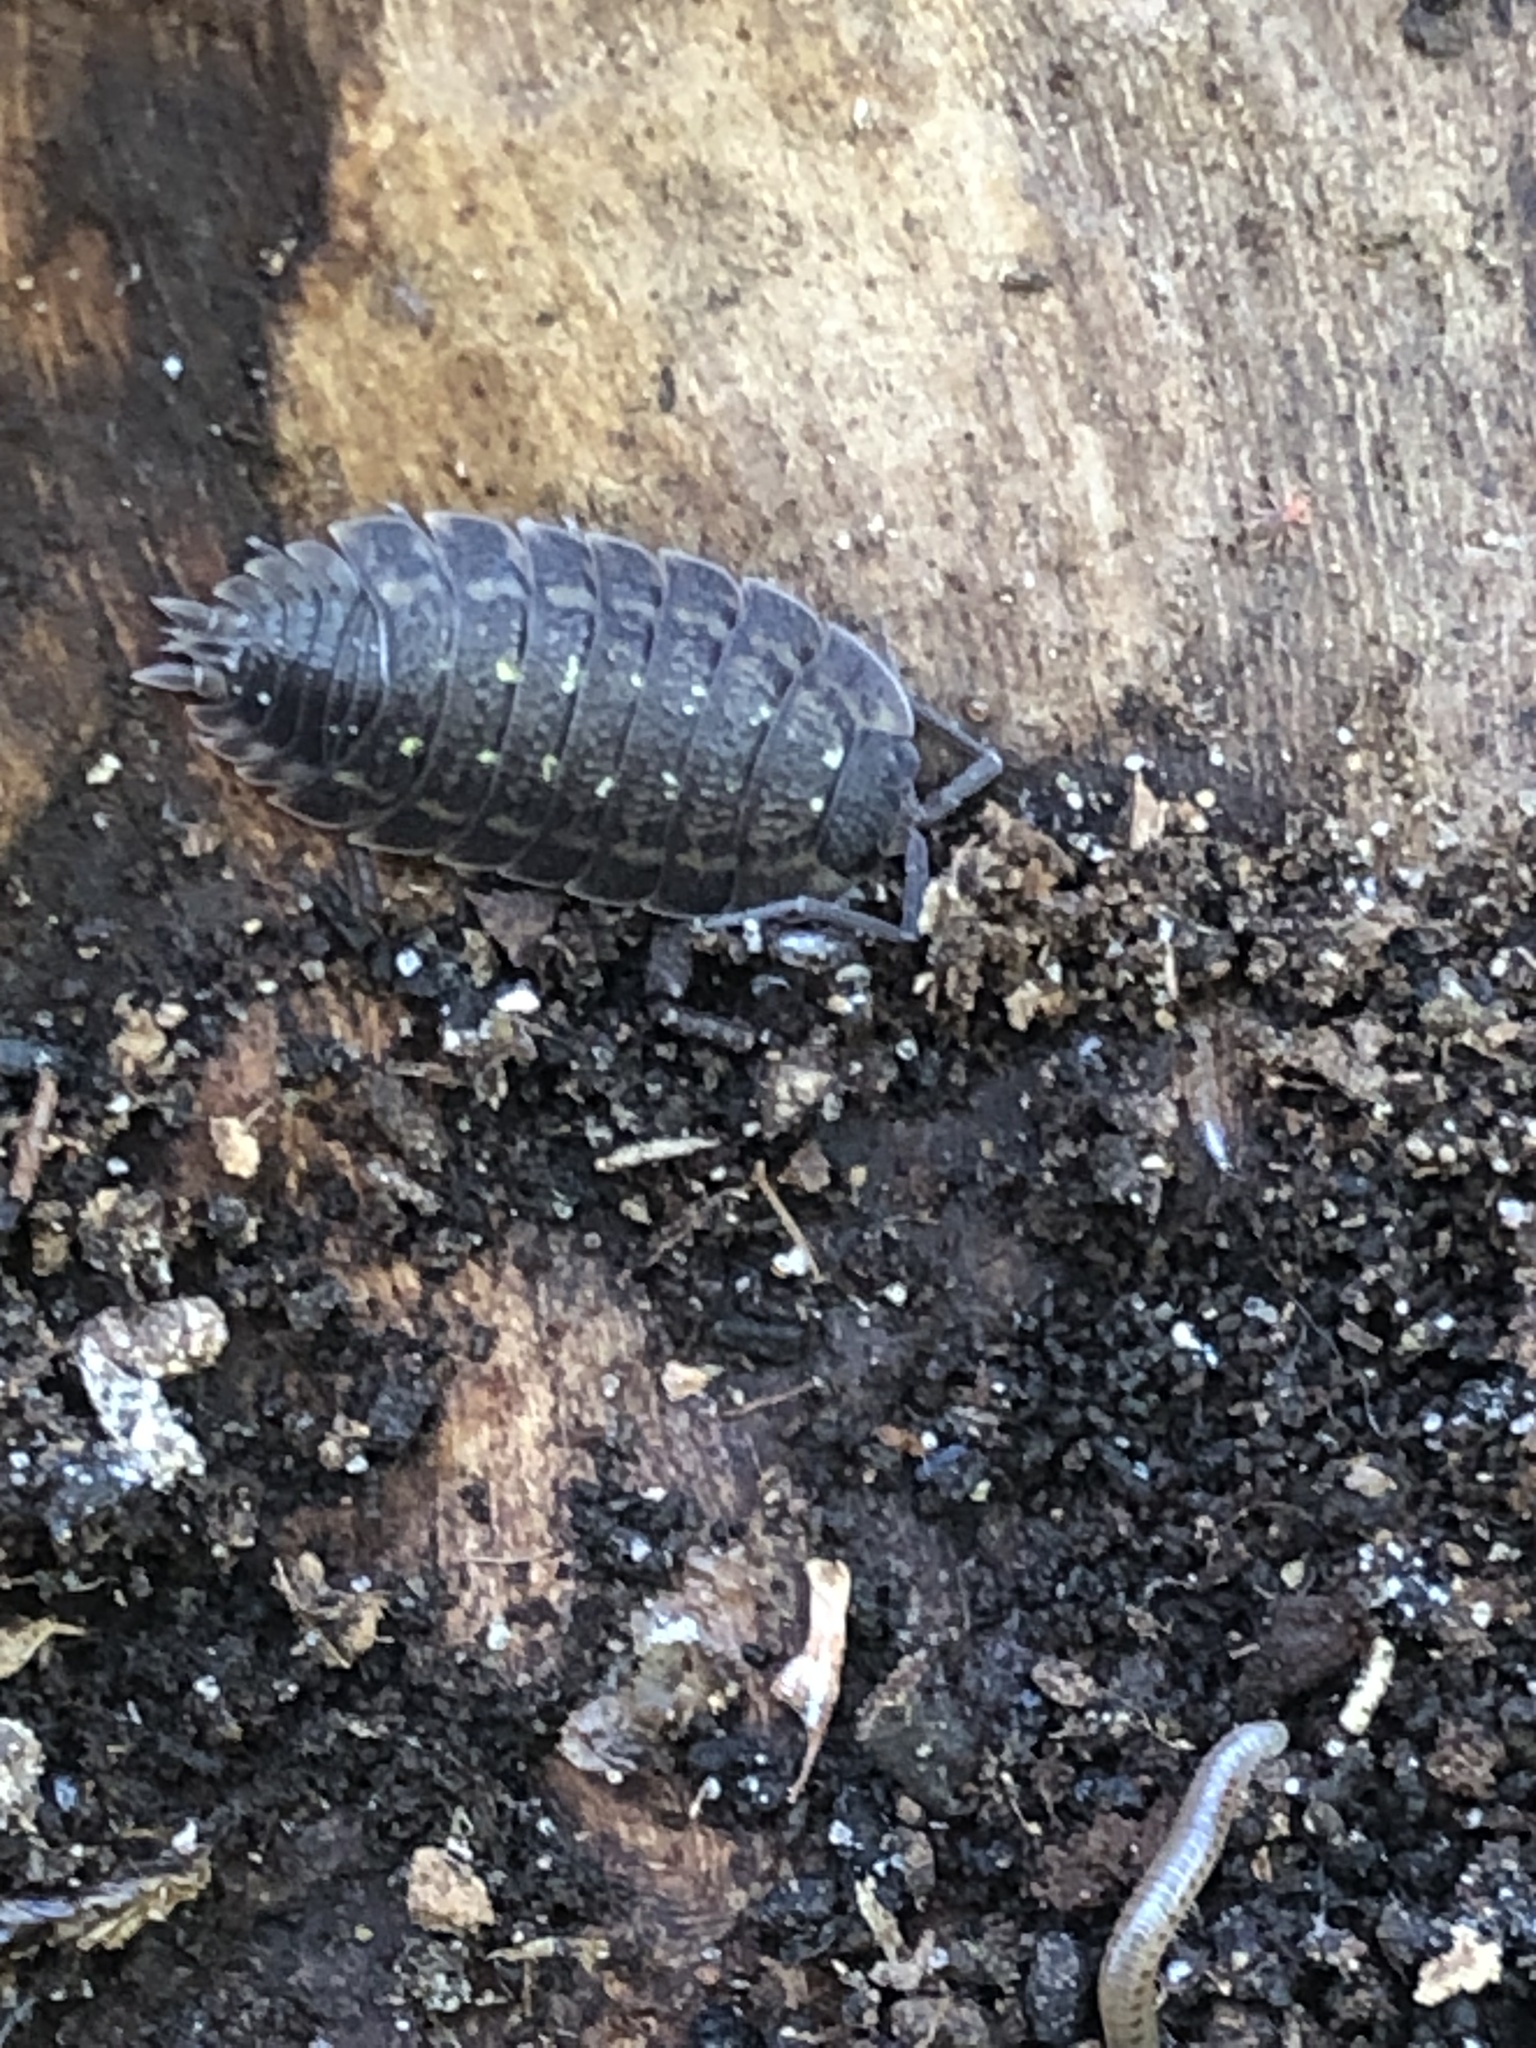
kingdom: Animalia
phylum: Arthropoda
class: Malacostraca
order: Isopoda
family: Porcellionidae
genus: Porcellio
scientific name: Porcellio spinicornis
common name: Painted woodlouse
